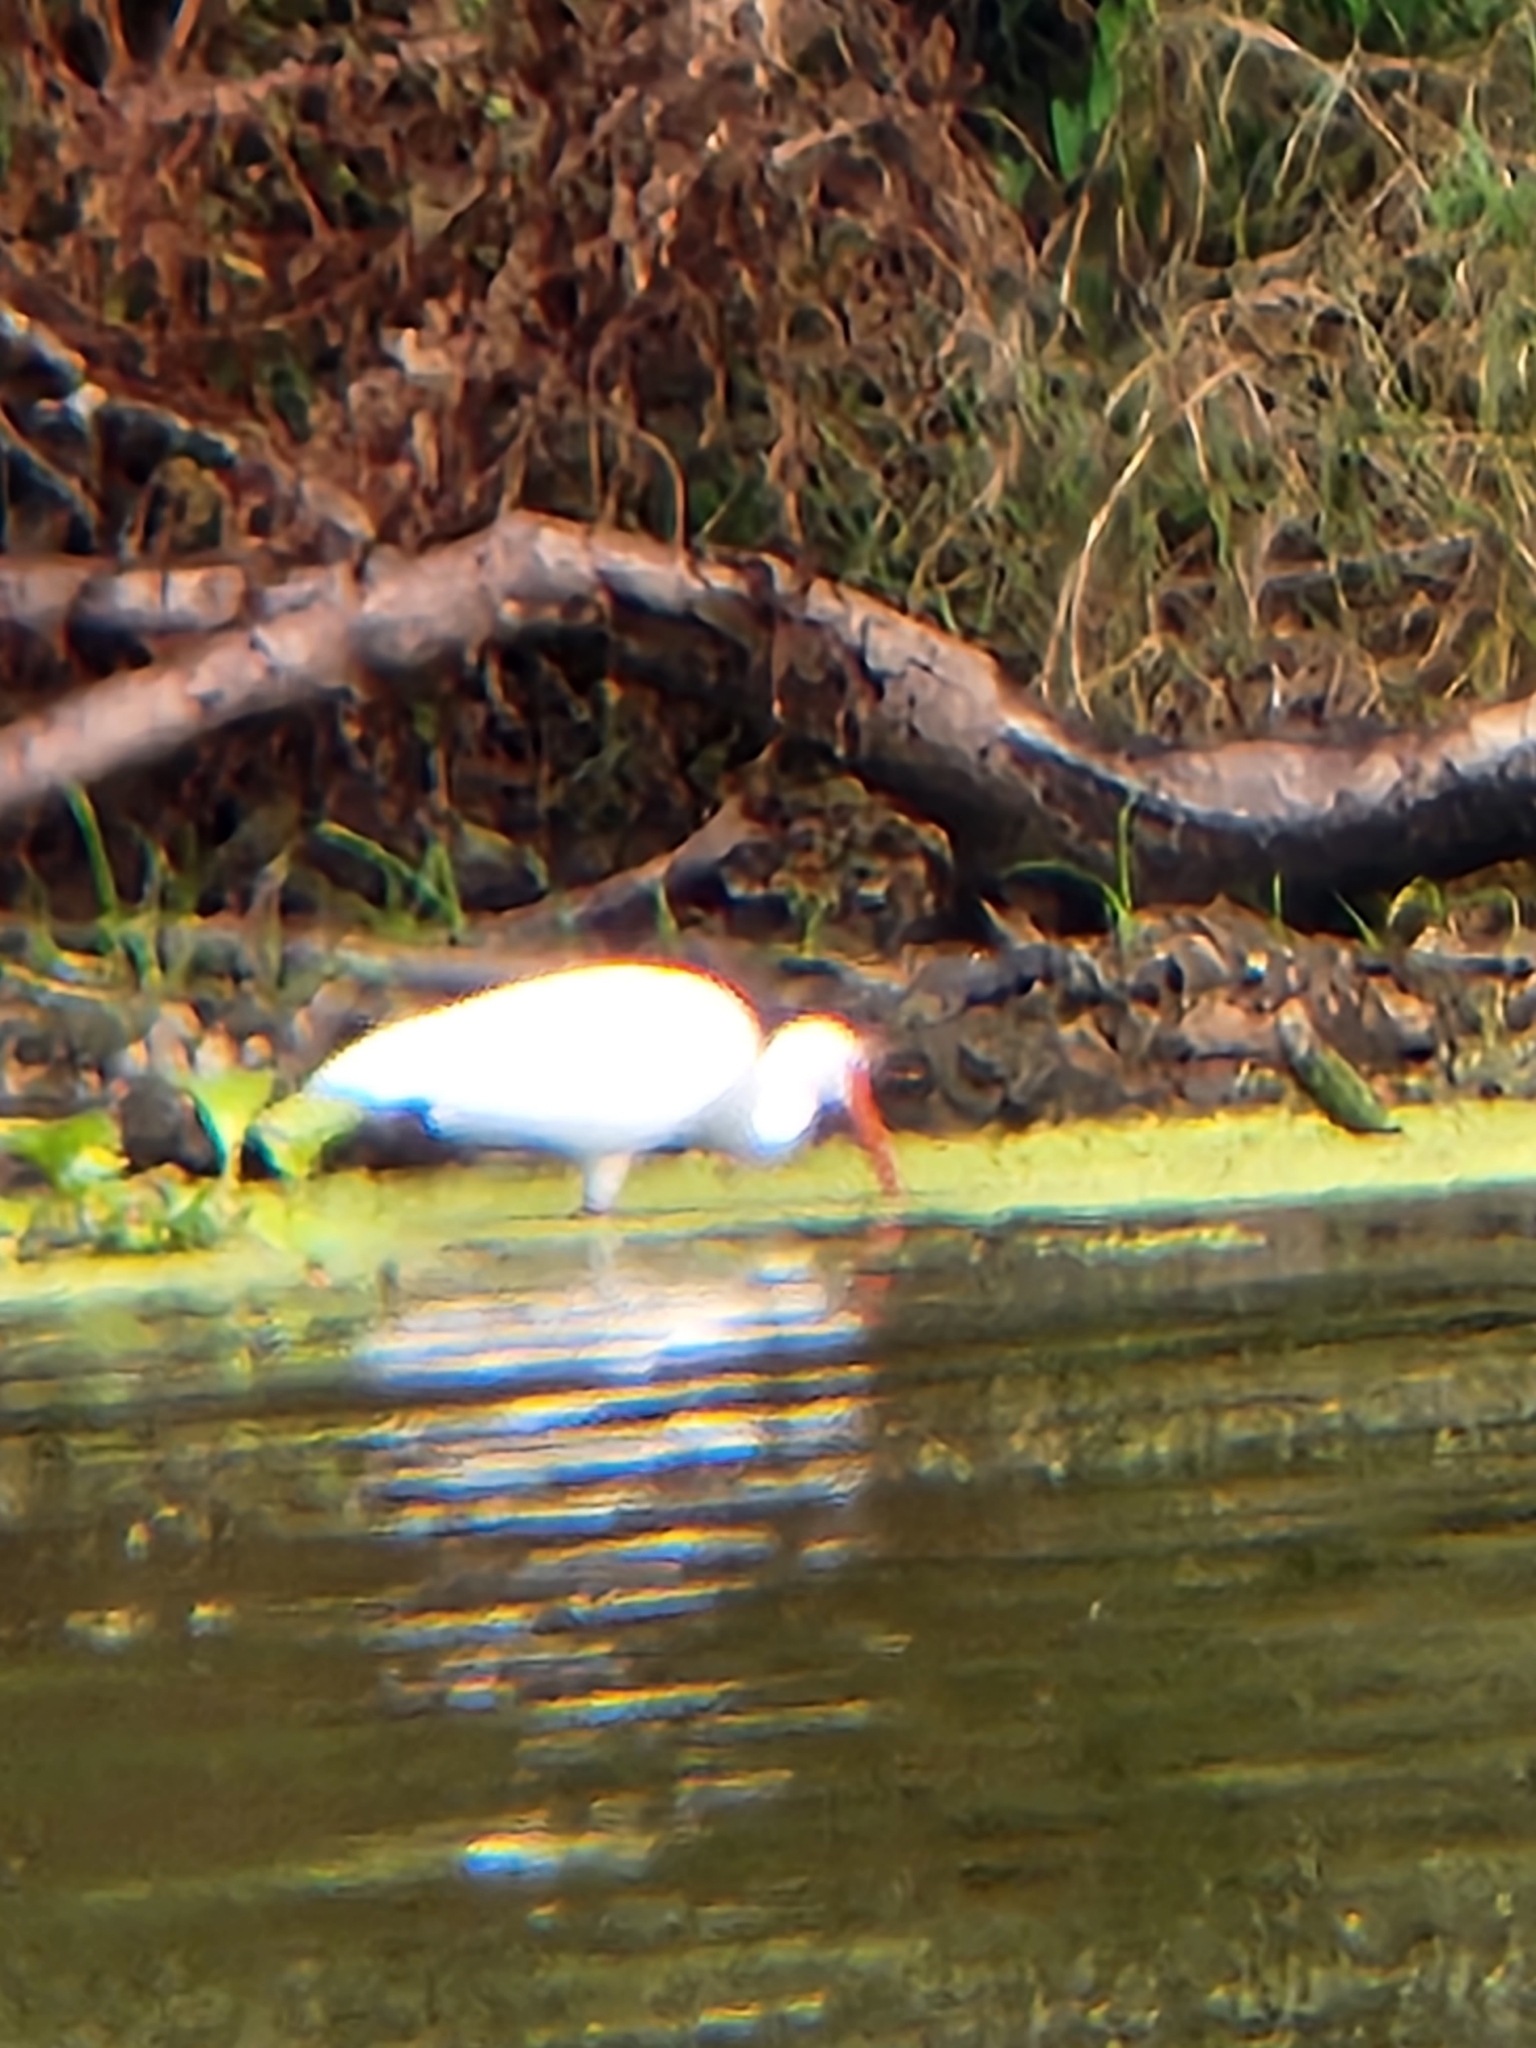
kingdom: Animalia
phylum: Chordata
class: Aves
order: Pelecaniformes
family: Threskiornithidae
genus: Eudocimus
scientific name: Eudocimus albus
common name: White ibis
